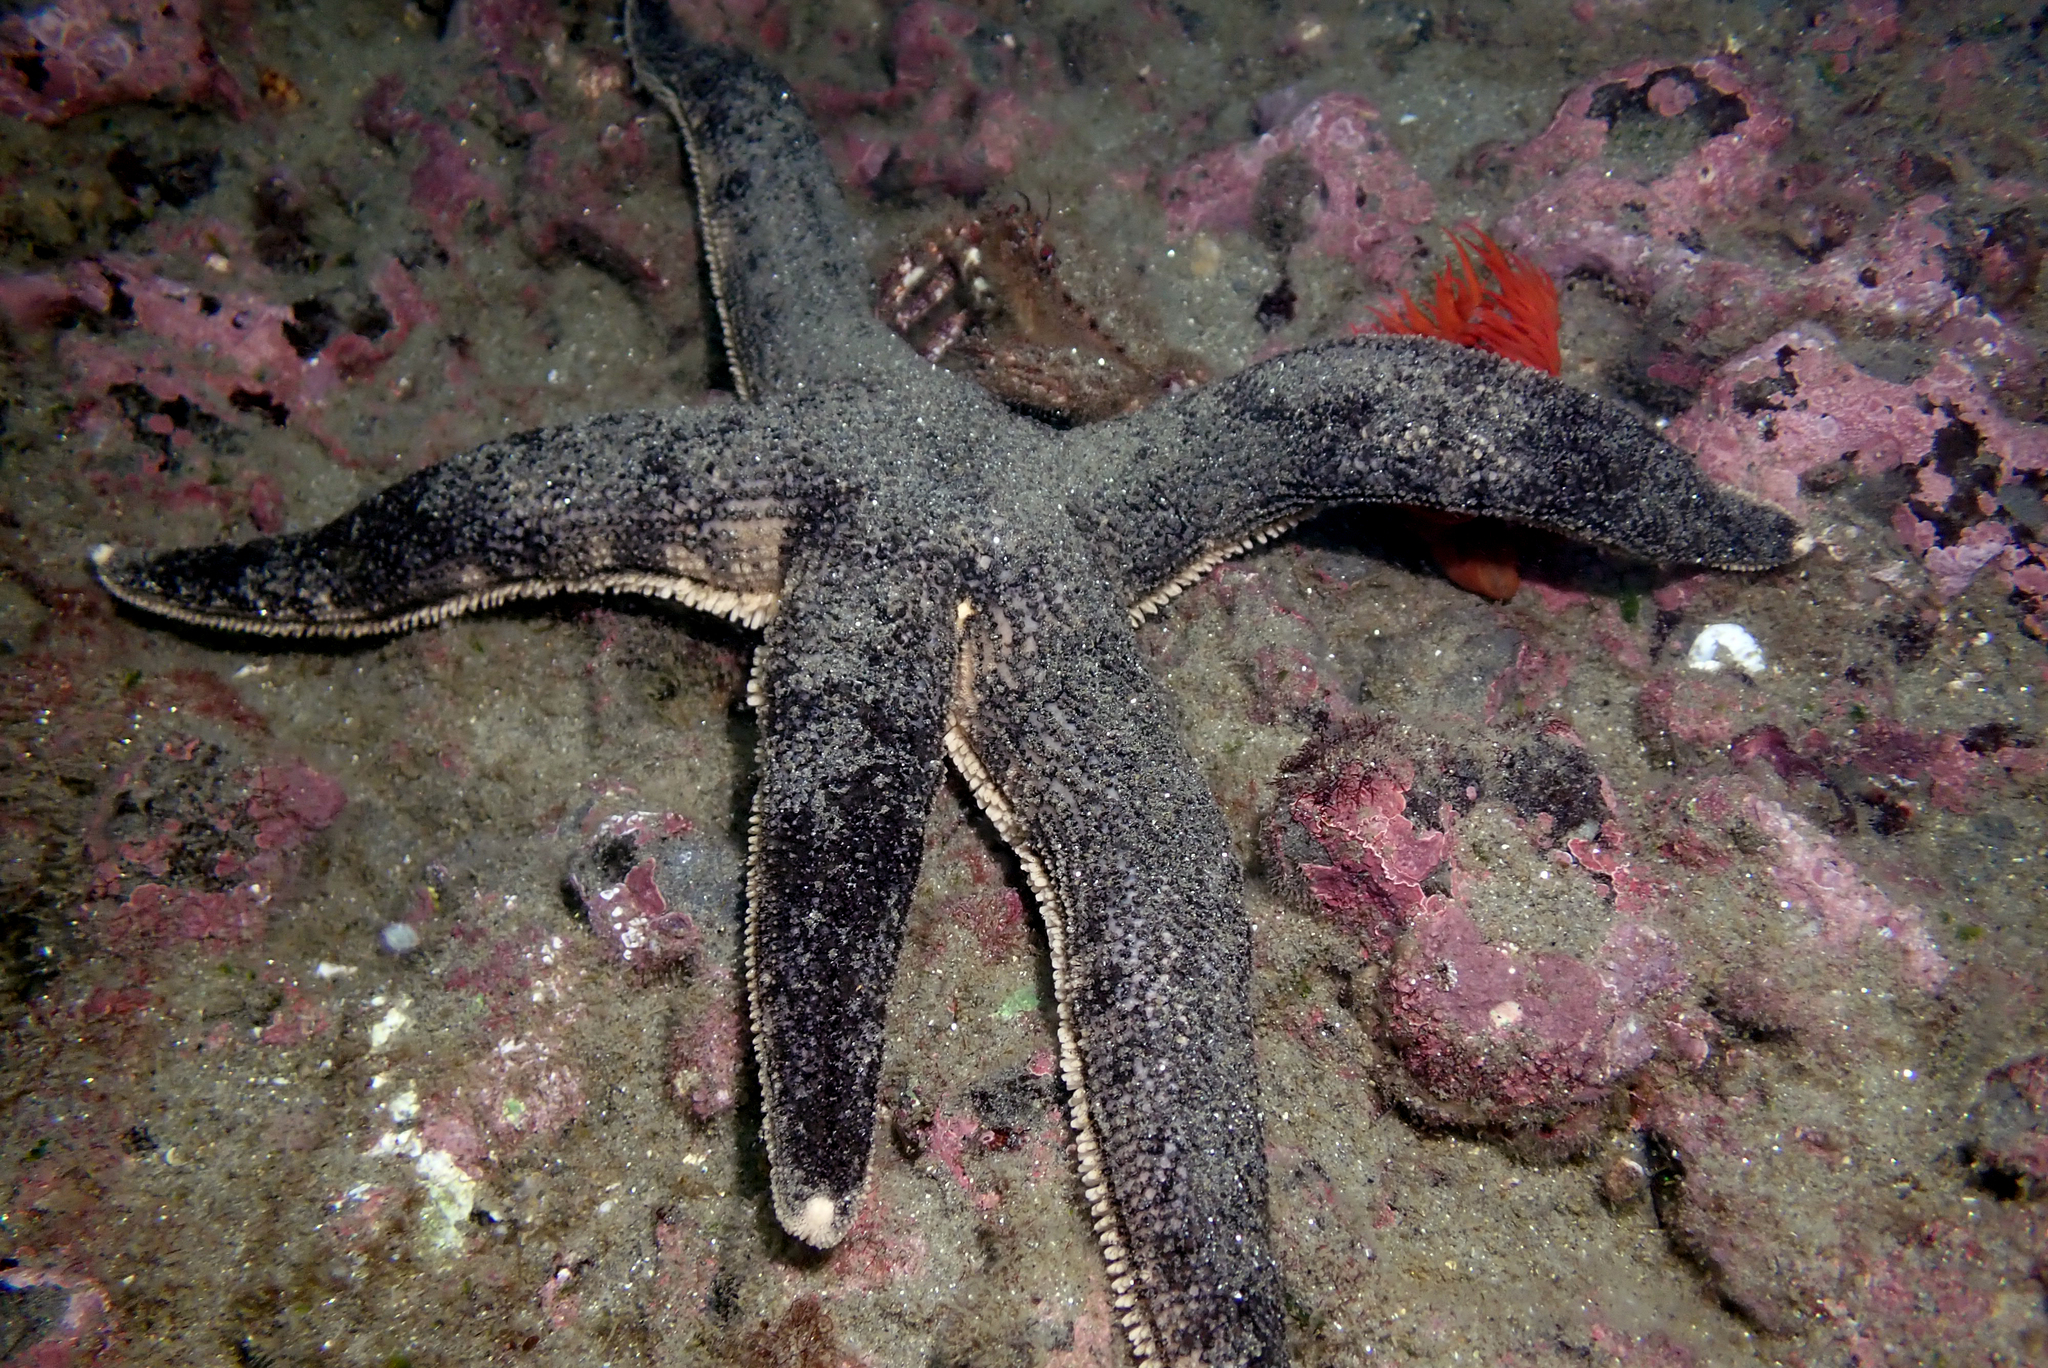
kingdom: Animalia
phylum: Echinodermata
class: Asteroidea
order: Paxillosida
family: Luidiidae
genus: Luidia
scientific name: Luidia magellanica
